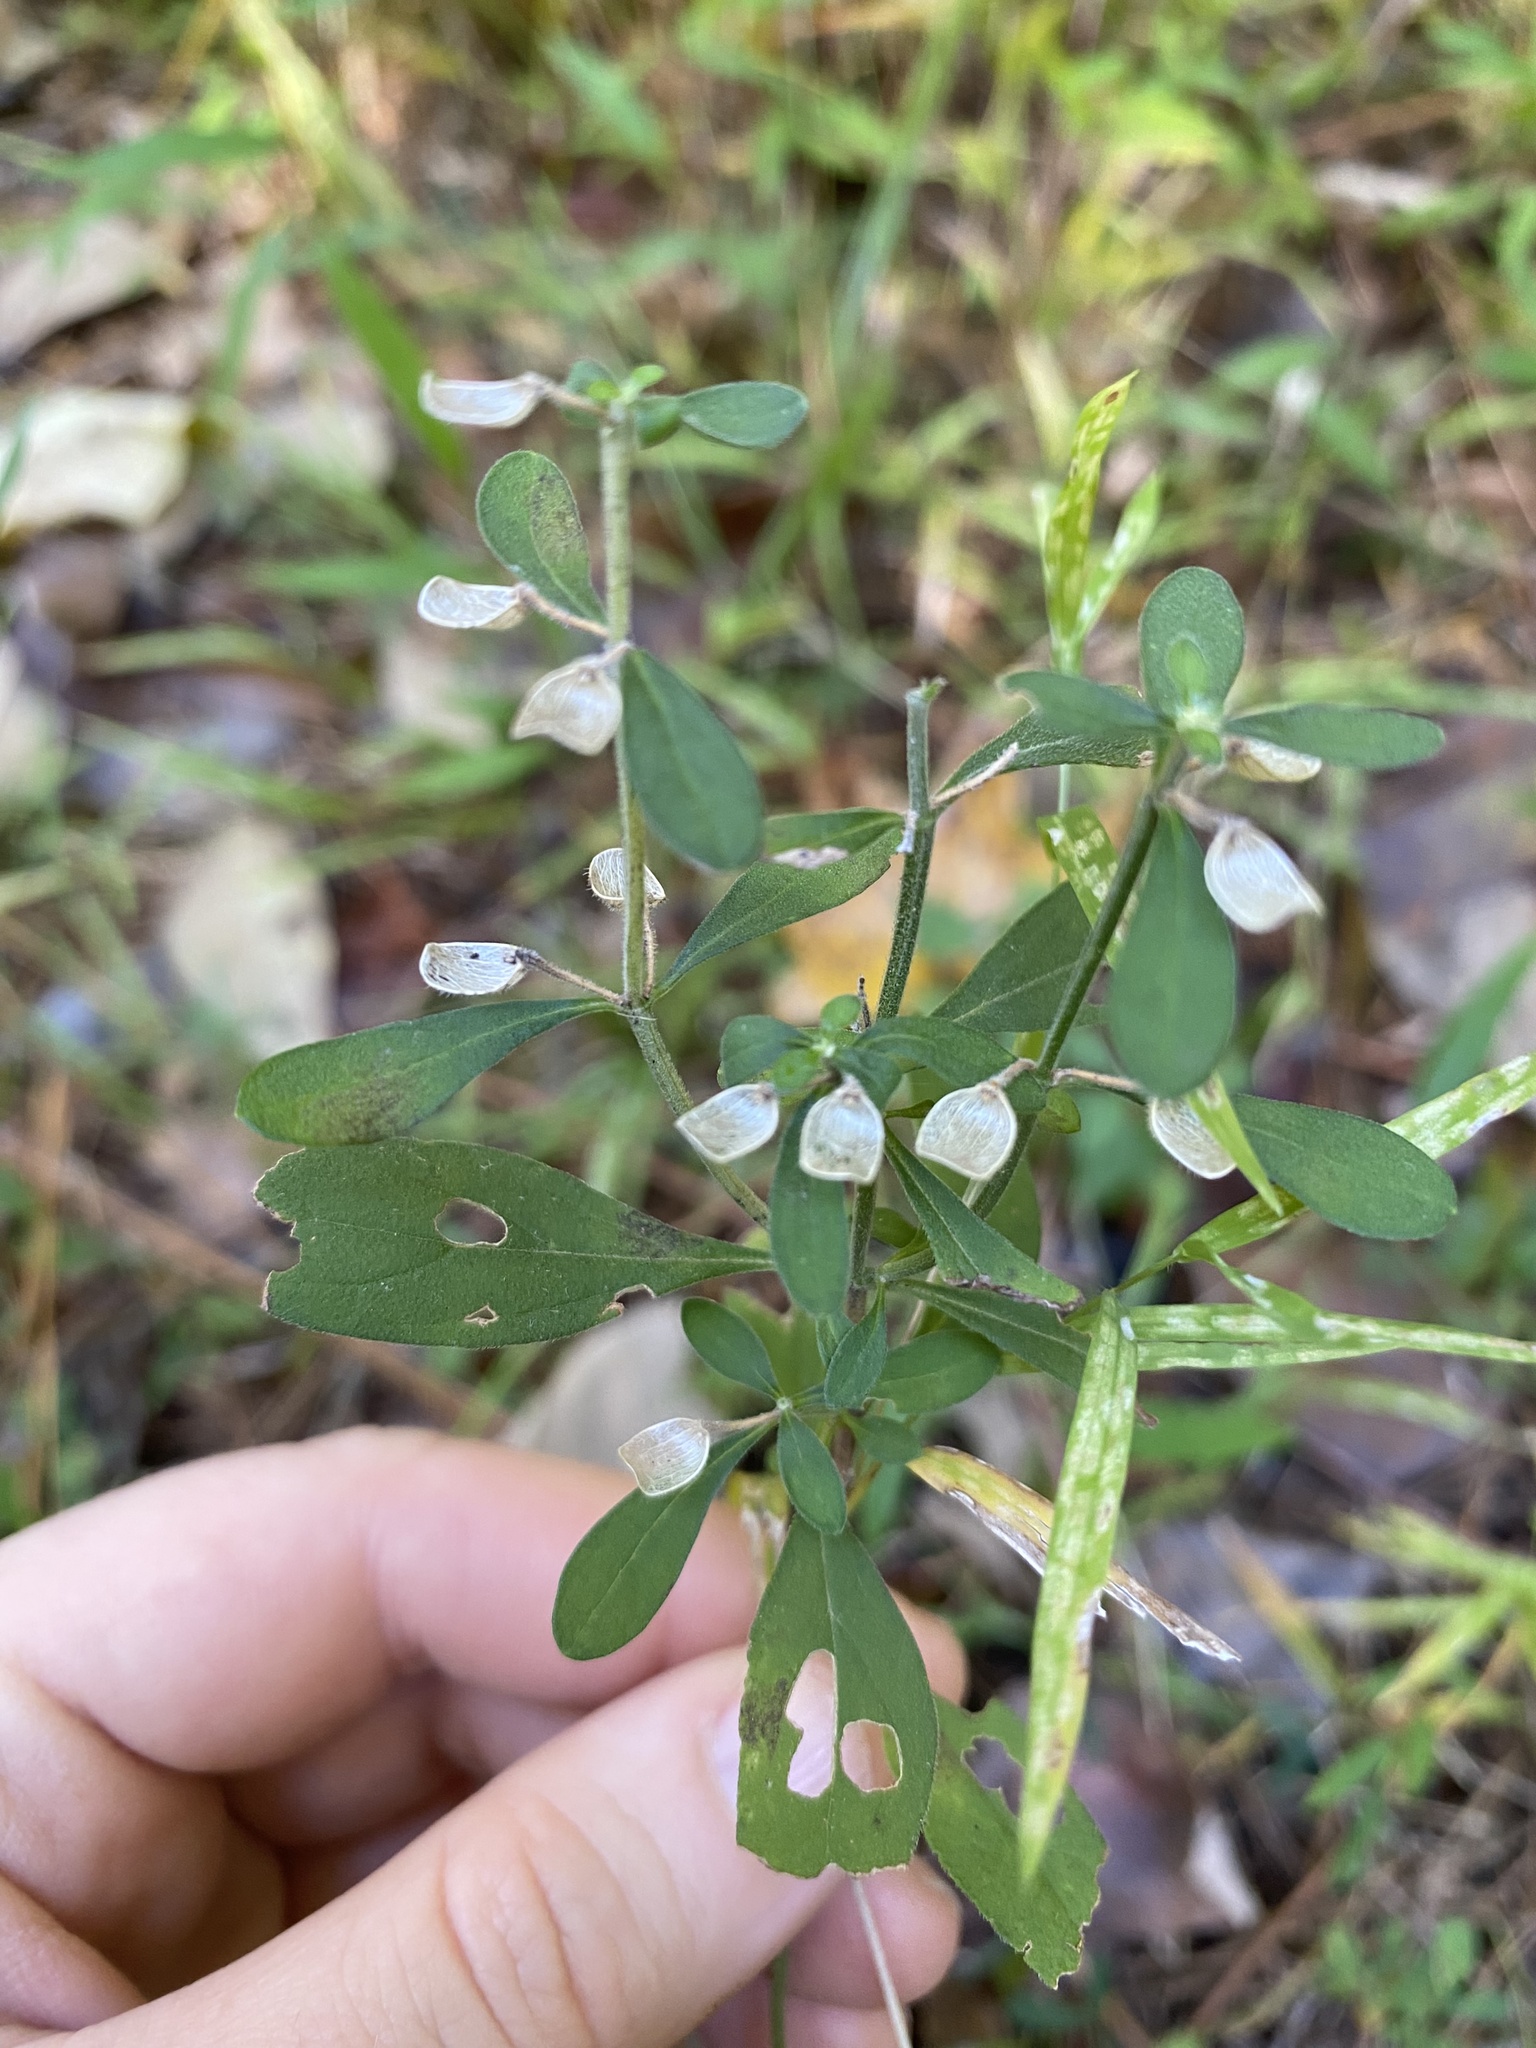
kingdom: Plantae
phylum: Tracheophyta
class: Magnoliopsida
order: Lamiales
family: Lamiaceae
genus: Scutellaria
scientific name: Scutellaria integrifolia
